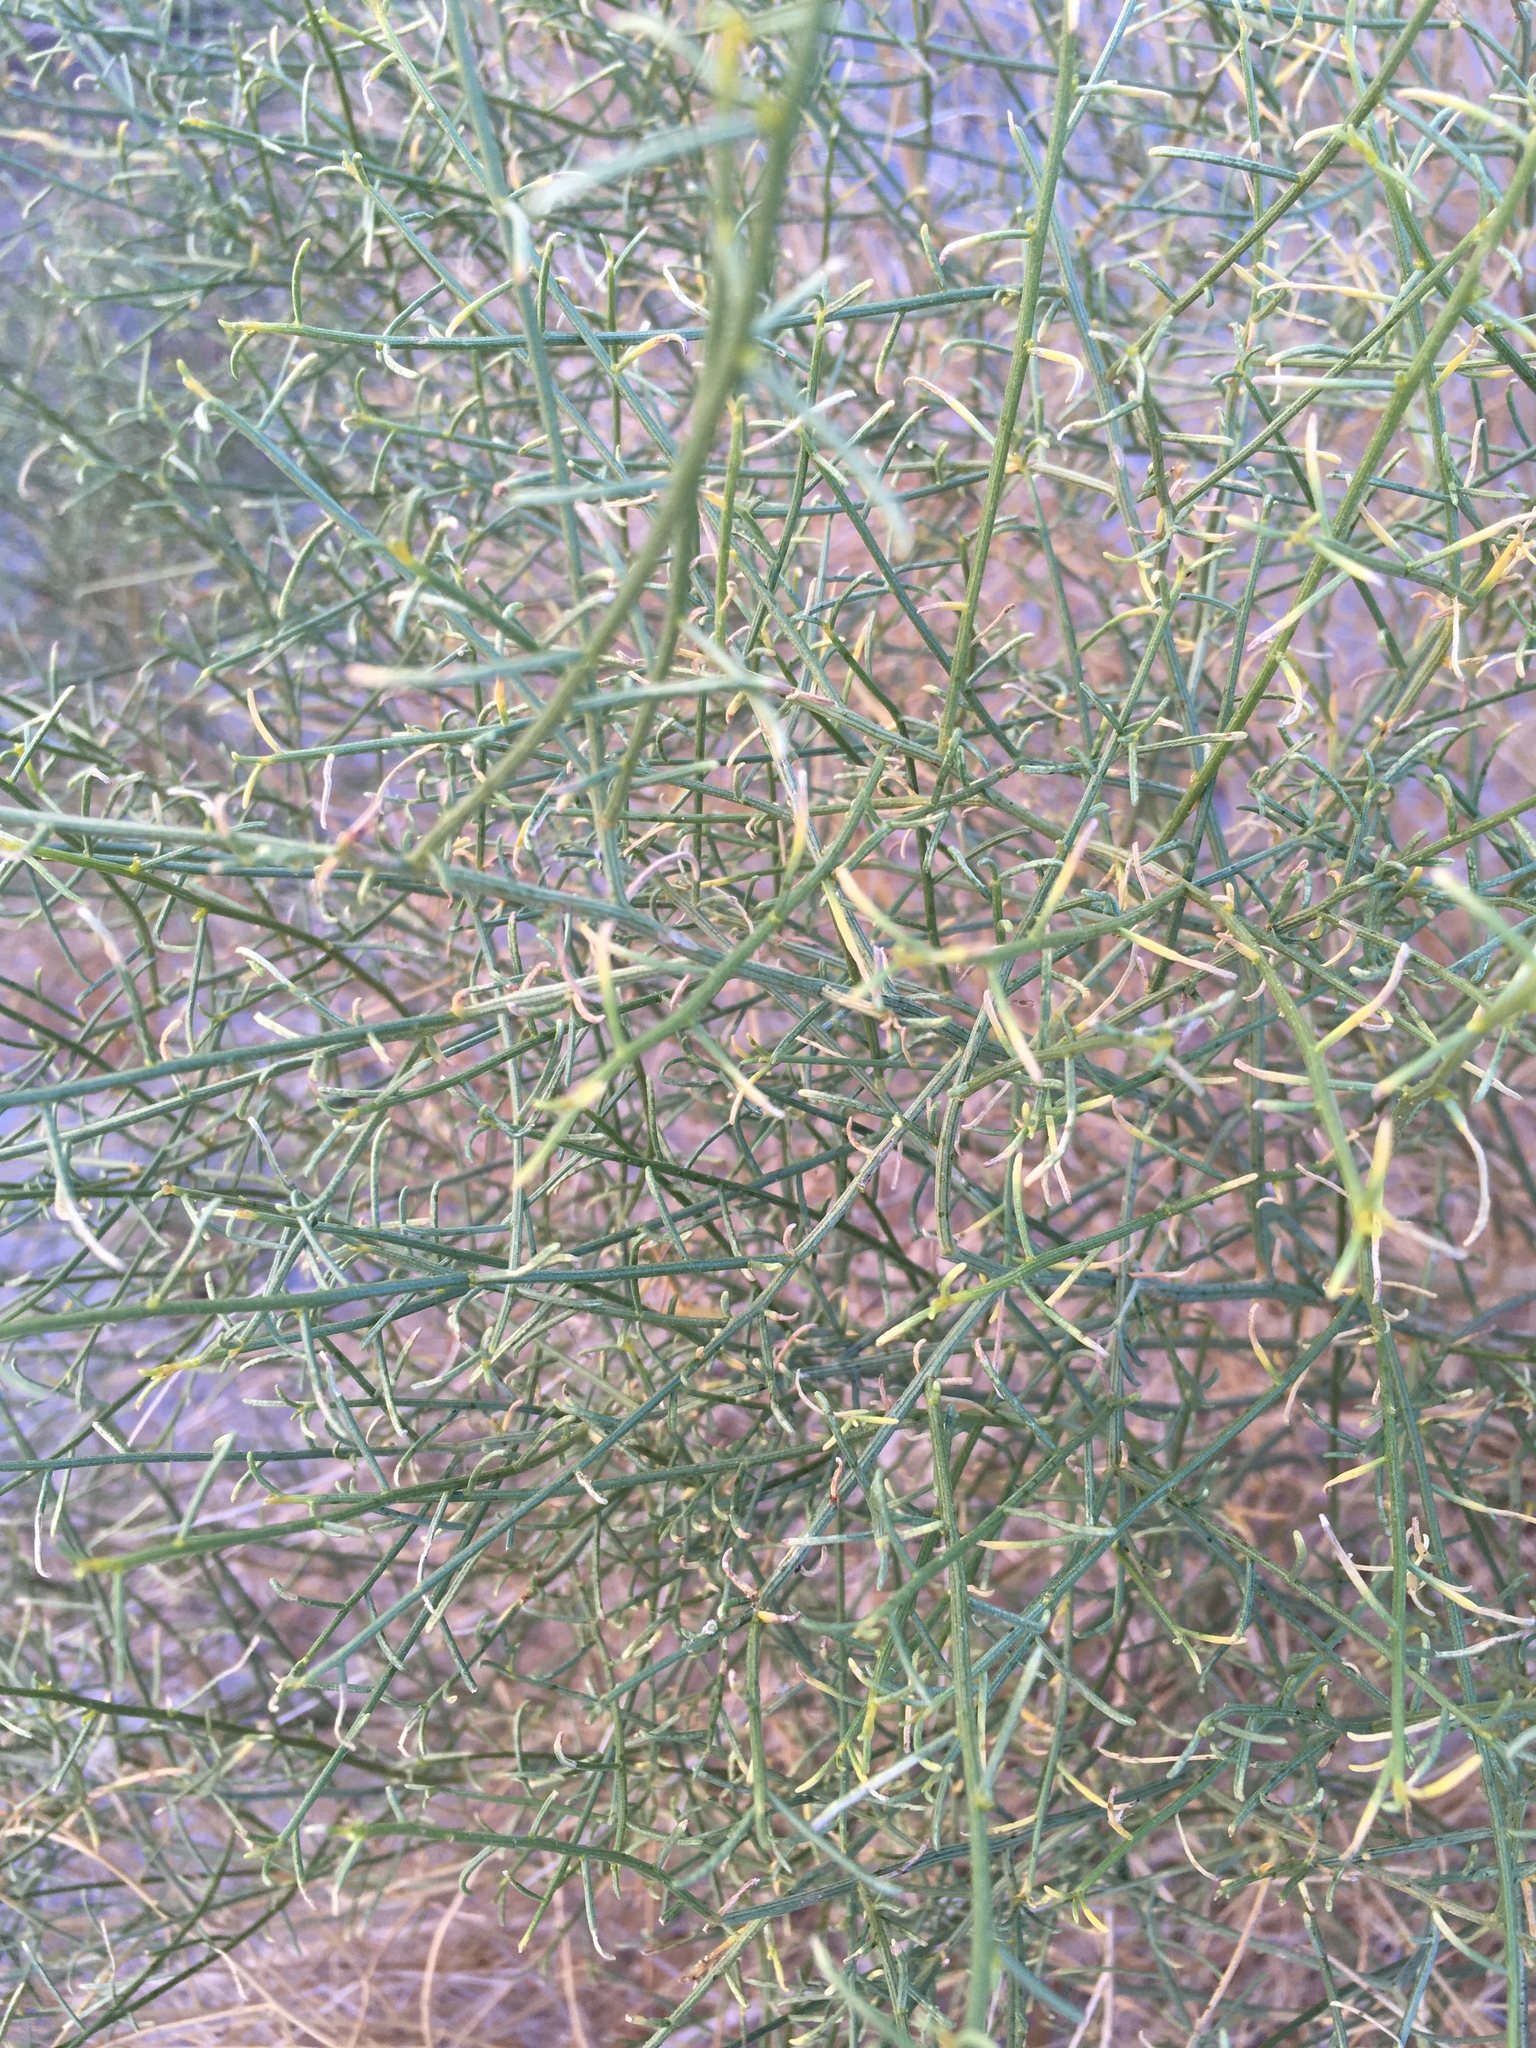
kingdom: Plantae
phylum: Tracheophyta
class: Magnoliopsida
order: Asterales
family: Asteraceae
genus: Ambrosia
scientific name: Ambrosia salsola
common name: Burrobrush
